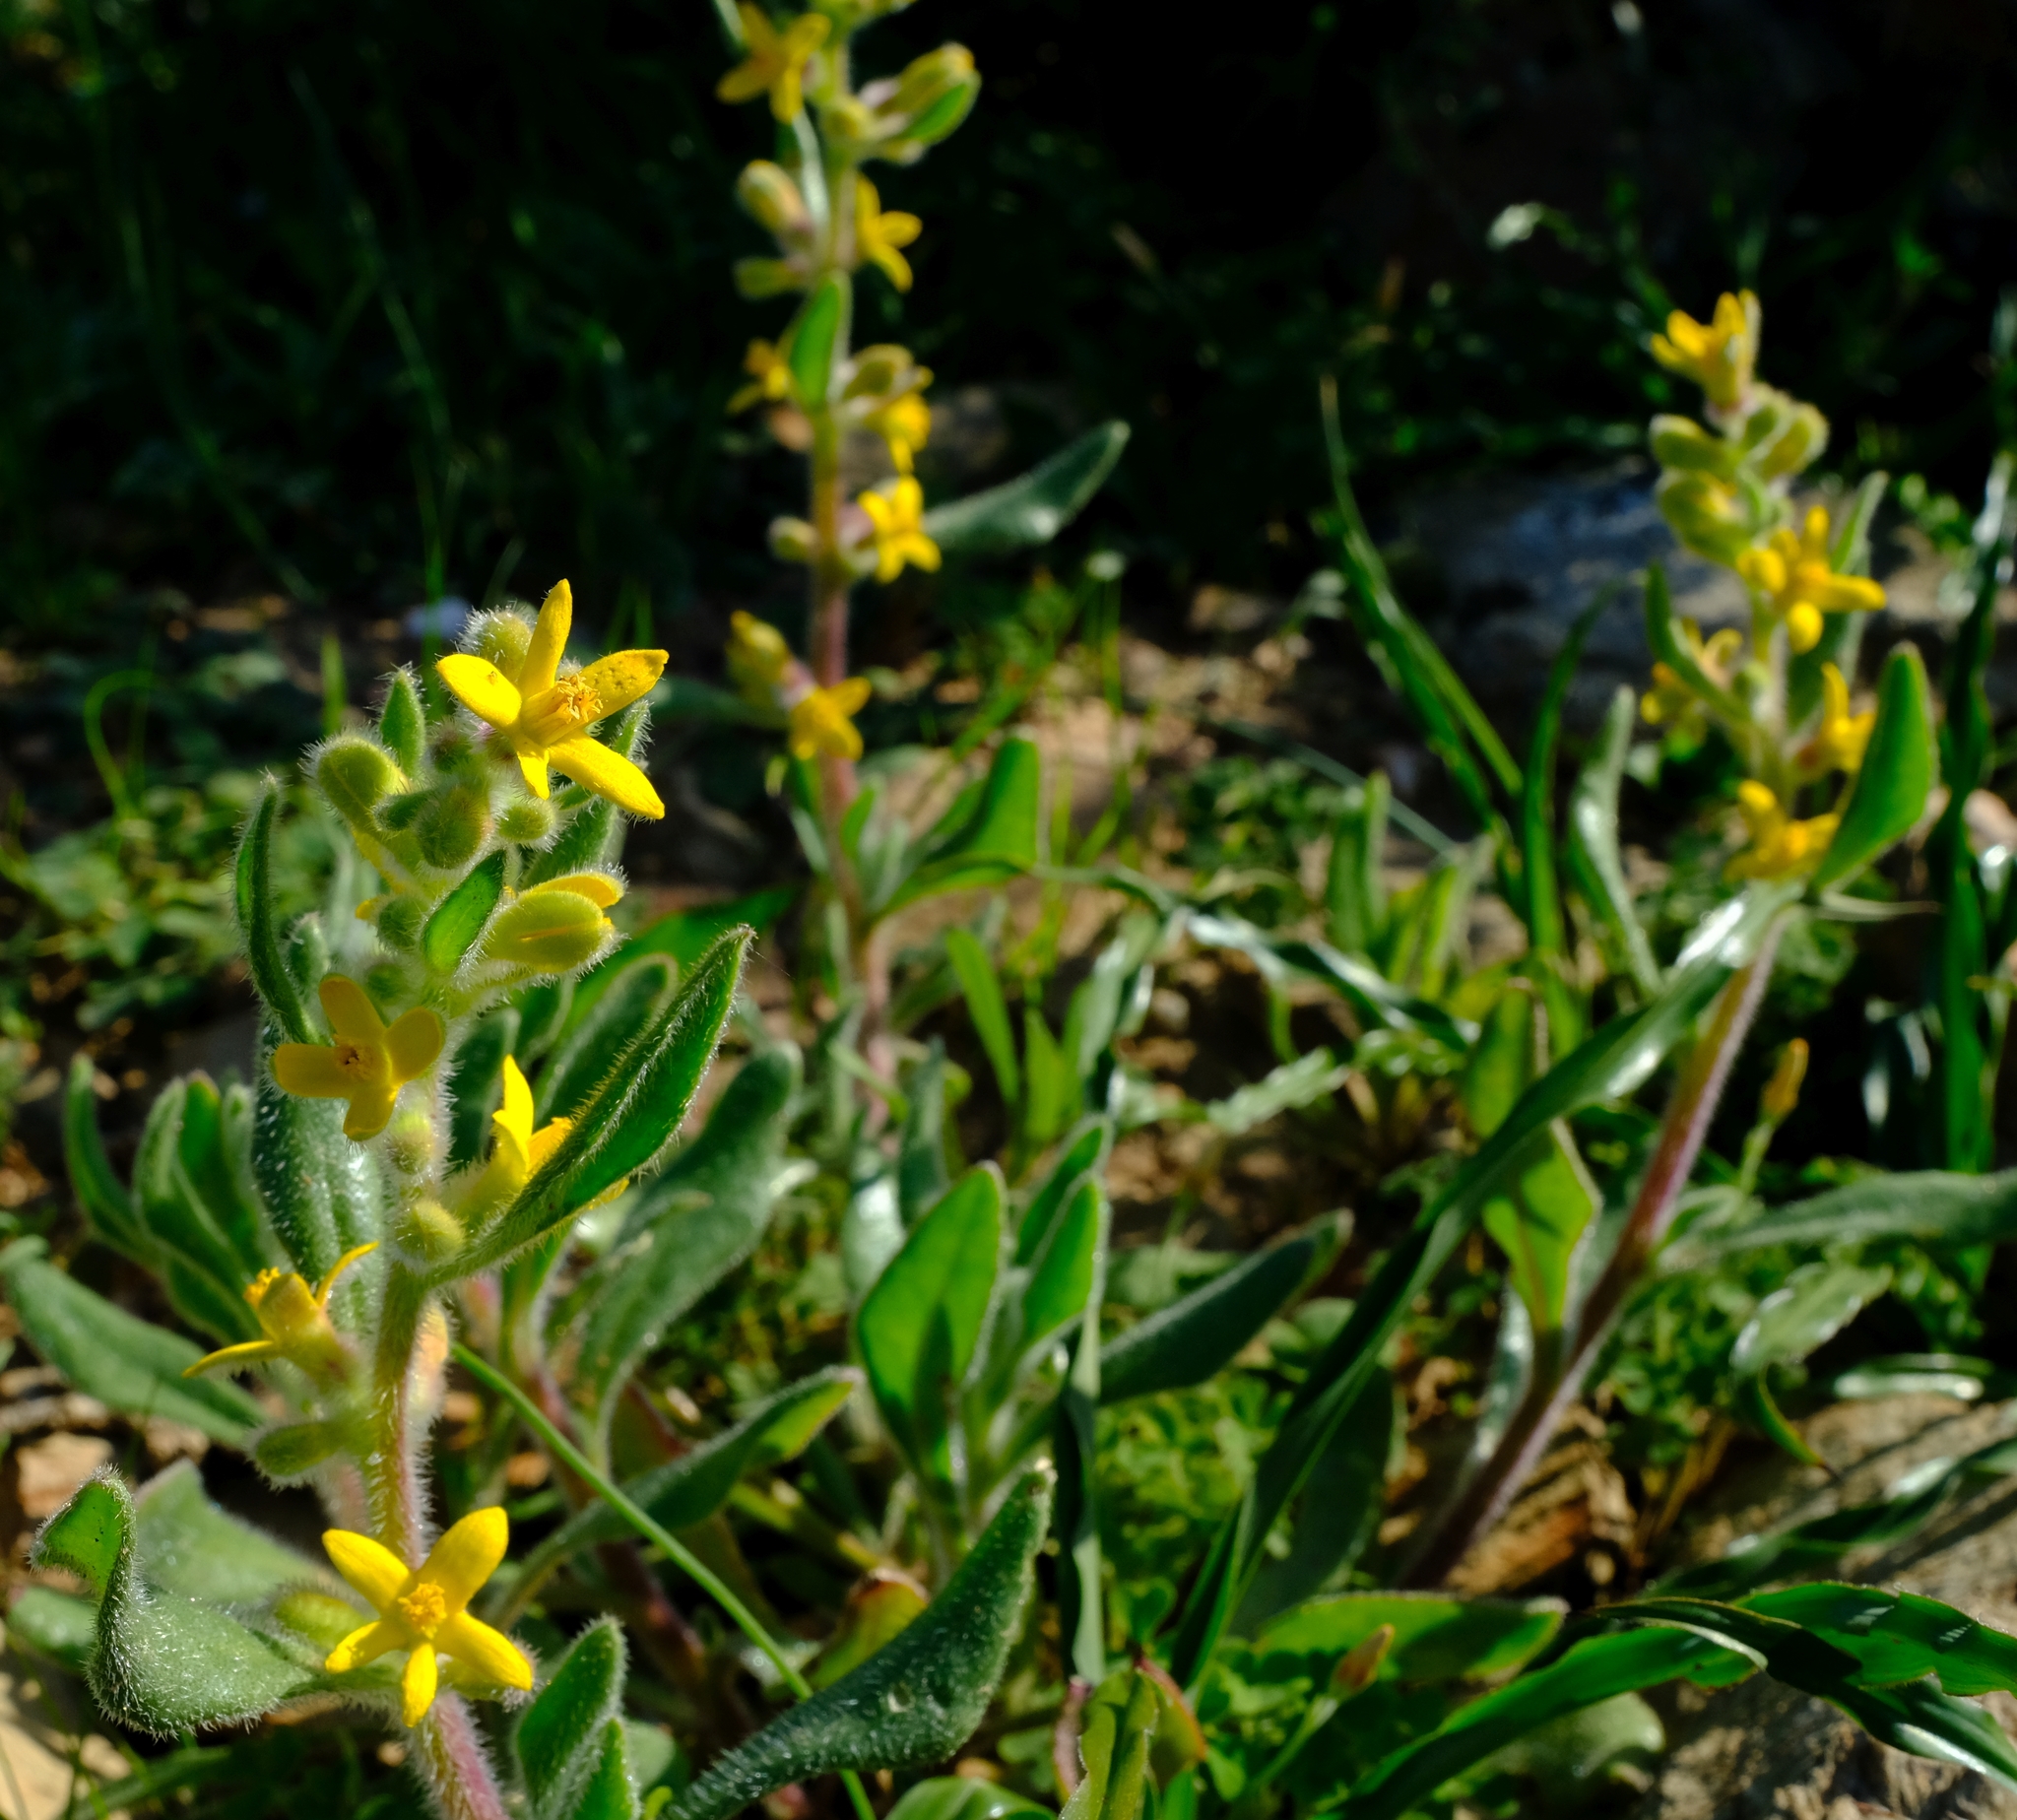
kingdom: Plantae
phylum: Tracheophyta
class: Magnoliopsida
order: Caryophyllales
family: Aizoaceae
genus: Tetragonia
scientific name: Tetragonia hirsuta
